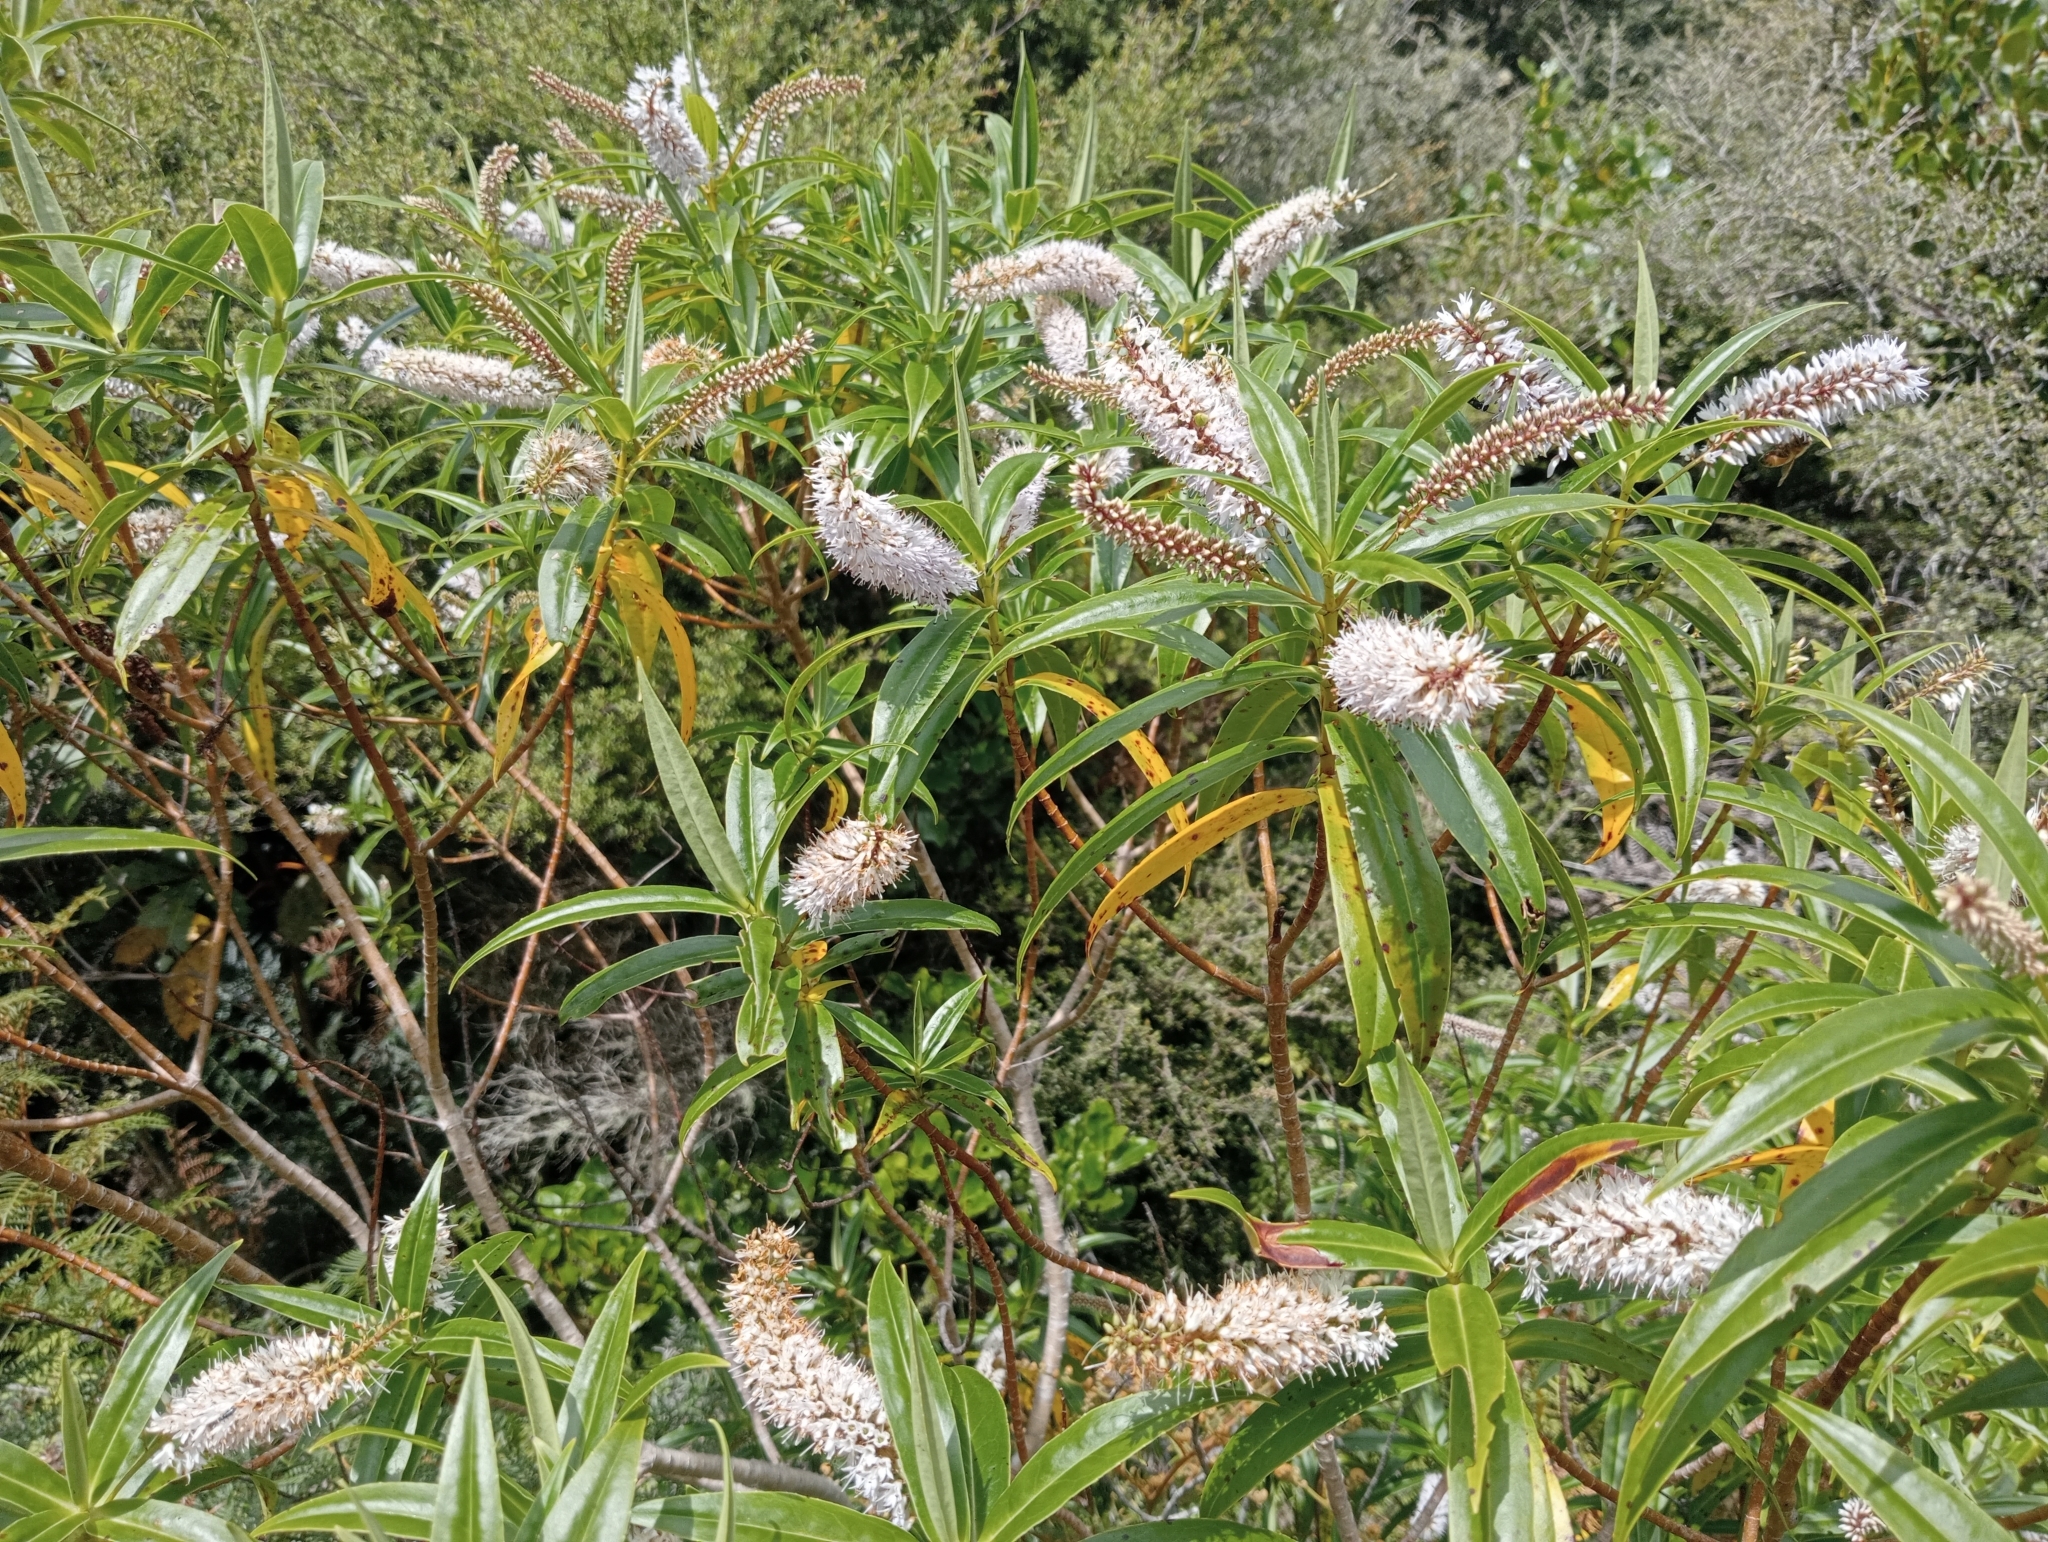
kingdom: Plantae
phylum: Tracheophyta
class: Magnoliopsida
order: Lamiales
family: Plantaginaceae
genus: Veronica
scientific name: Veronica salicifolia
